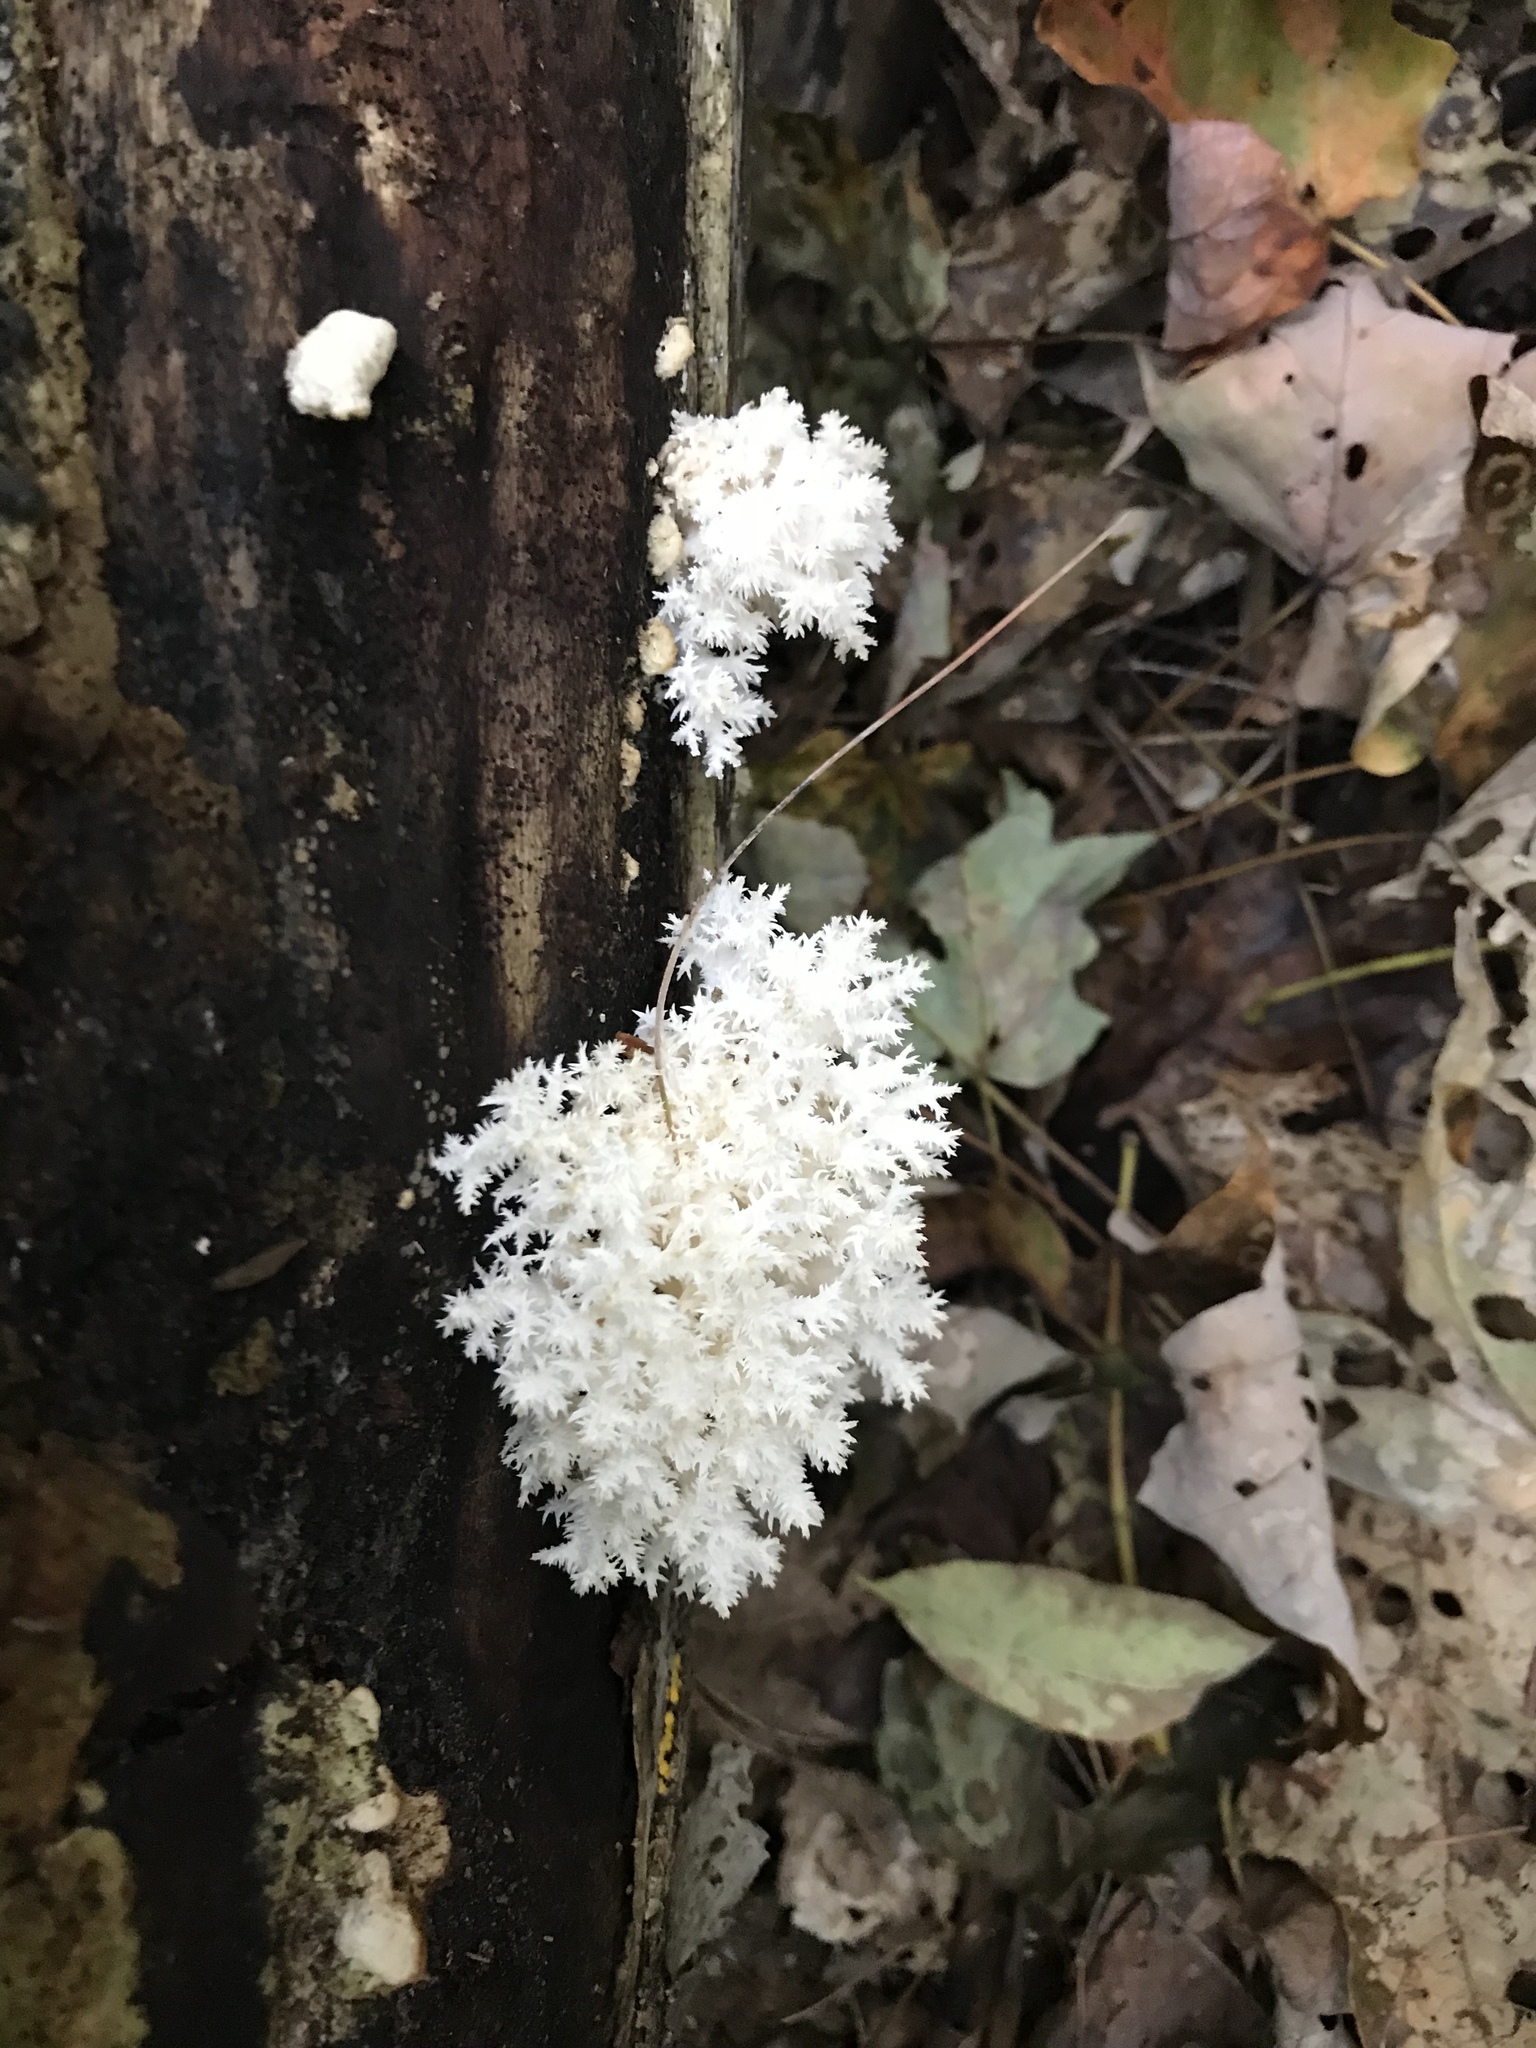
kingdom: Fungi
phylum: Basidiomycota
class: Agaricomycetes
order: Russulales
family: Hericiaceae
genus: Hericium
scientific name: Hericium coralloides
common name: Coral tooth
